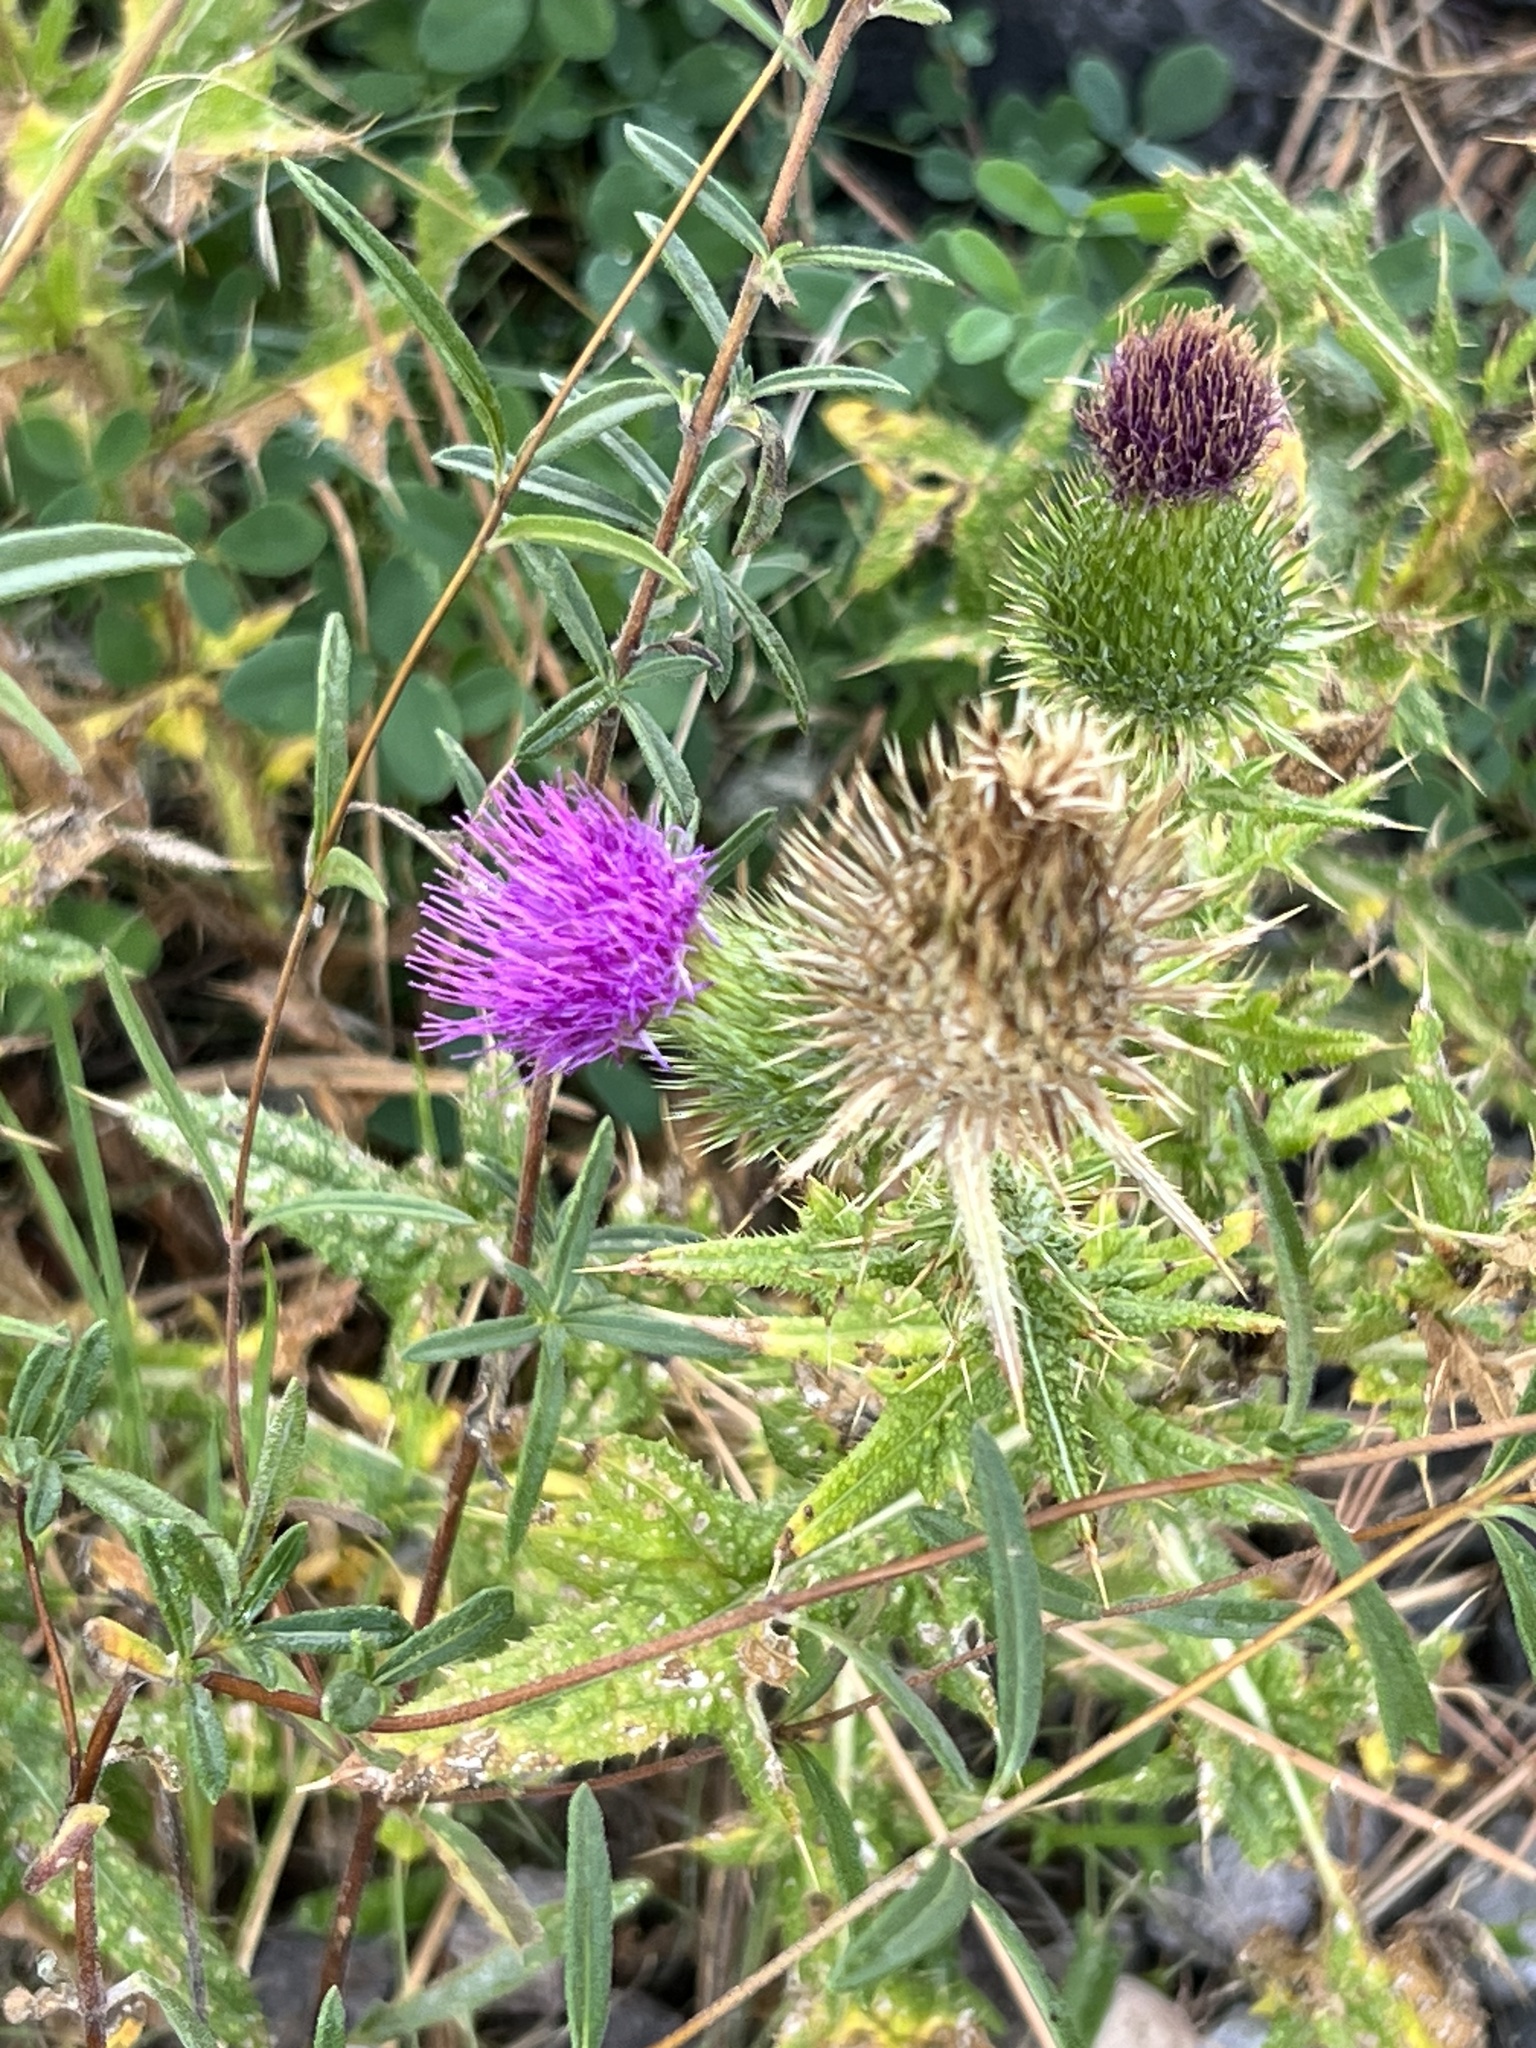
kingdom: Plantae
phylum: Tracheophyta
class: Magnoliopsida
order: Asterales
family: Asteraceae
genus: Cirsium
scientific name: Cirsium vulgare
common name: Bull thistle
